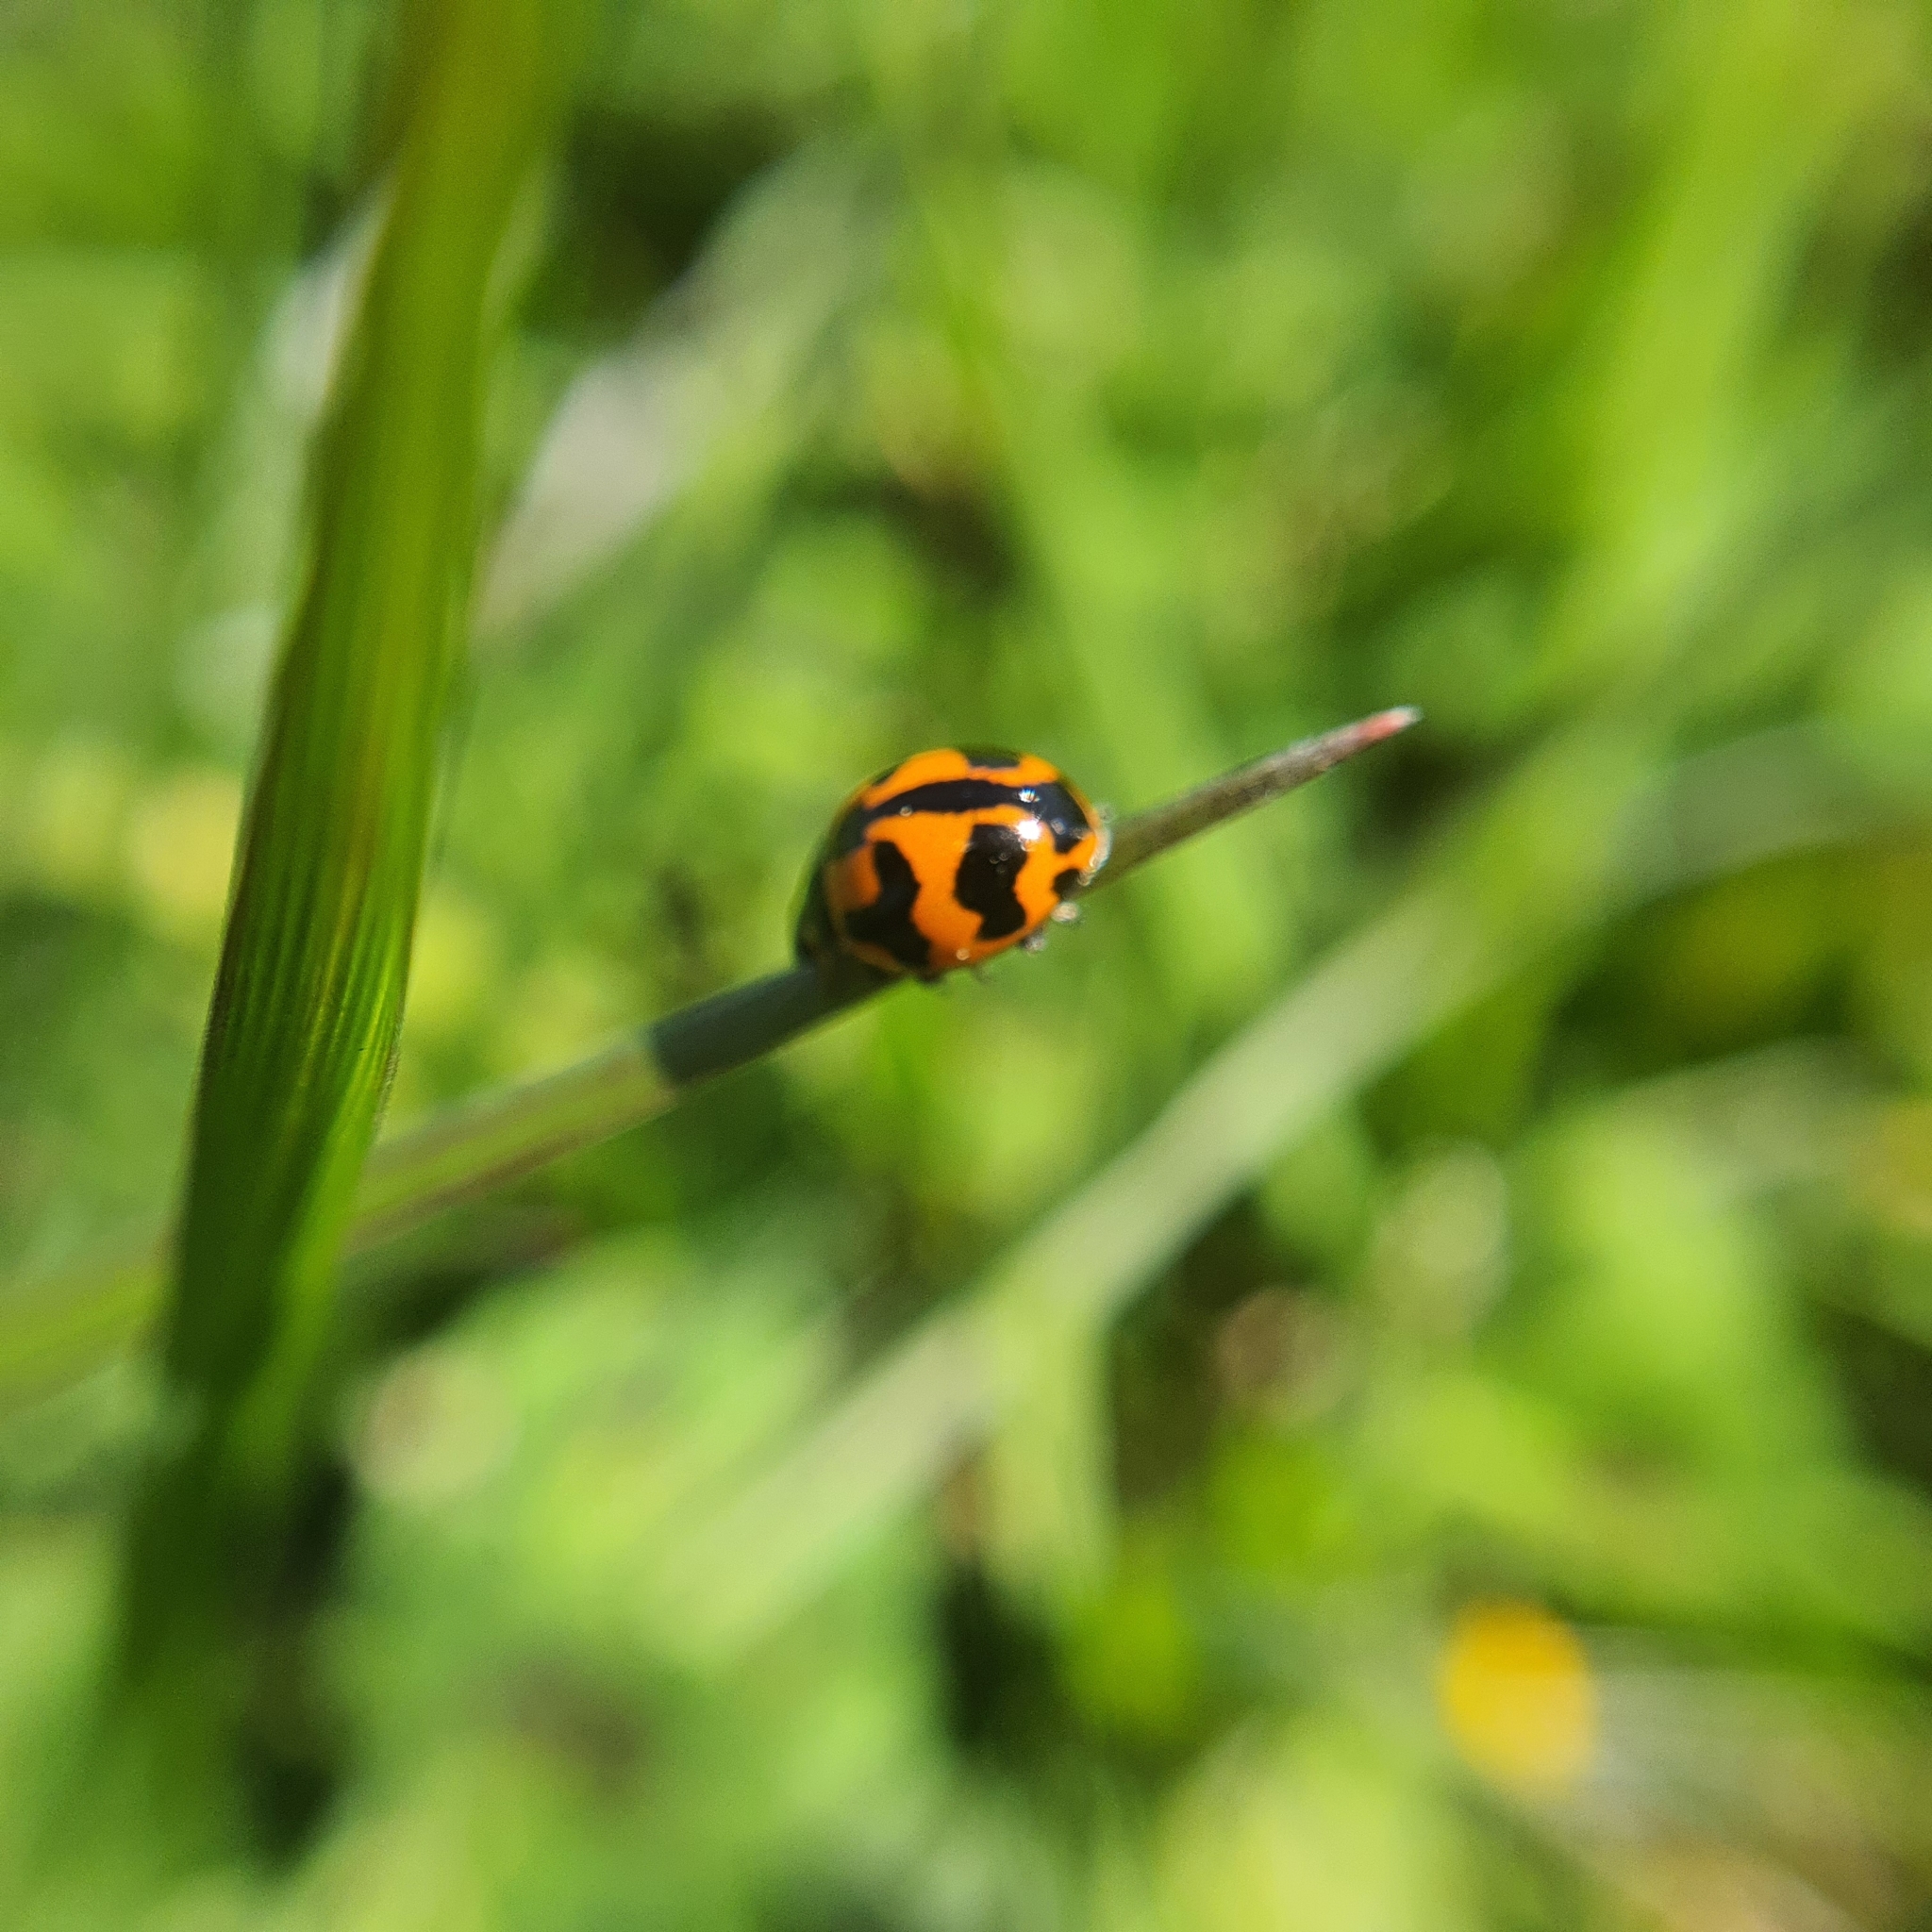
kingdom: Animalia
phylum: Arthropoda
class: Insecta
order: Coleoptera
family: Coccinellidae
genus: Coccinella
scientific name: Coccinella transversalis
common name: Transverse lady beetle
